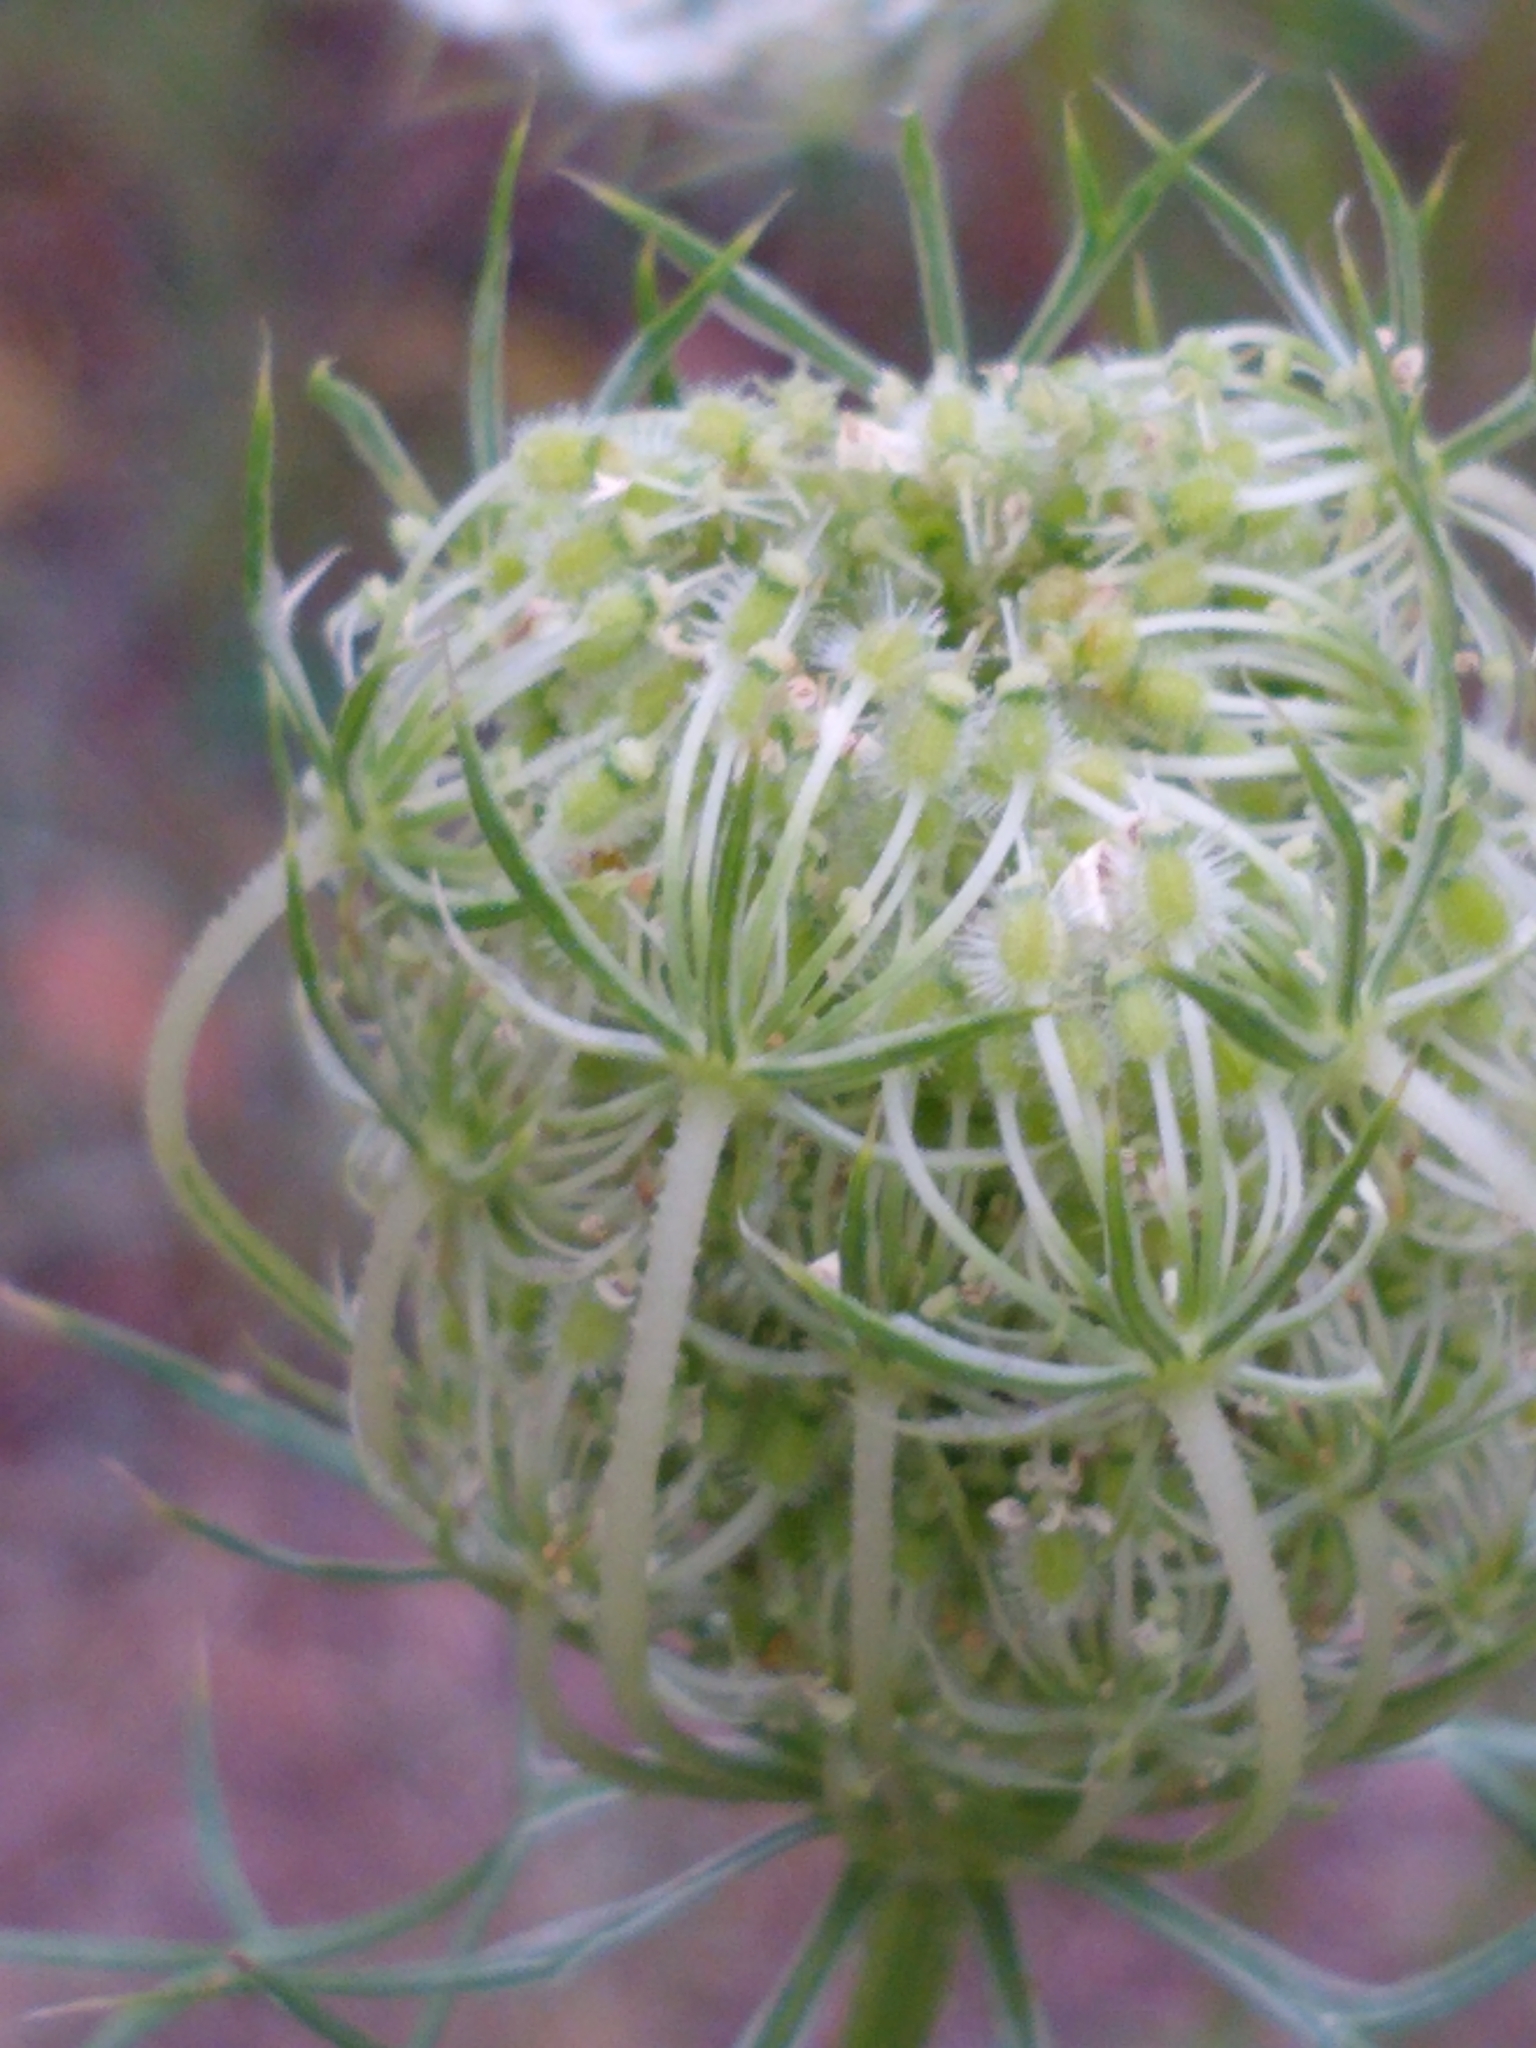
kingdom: Plantae
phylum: Tracheophyta
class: Magnoliopsida
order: Apiales
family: Apiaceae
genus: Daucus
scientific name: Daucus carota
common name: Wild carrot
